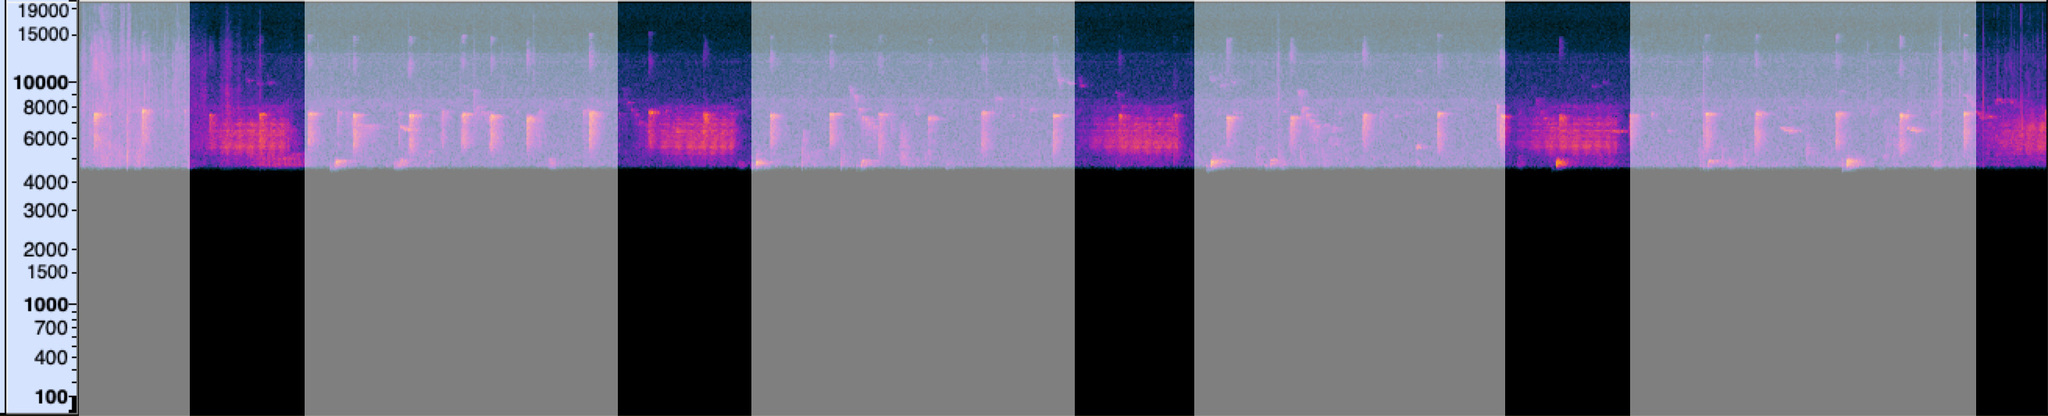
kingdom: Animalia
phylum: Chordata
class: Aves
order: Passeriformes
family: Parulidae
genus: Helmitheros
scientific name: Helmitheros vermivorum
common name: Worm-eating warbler
